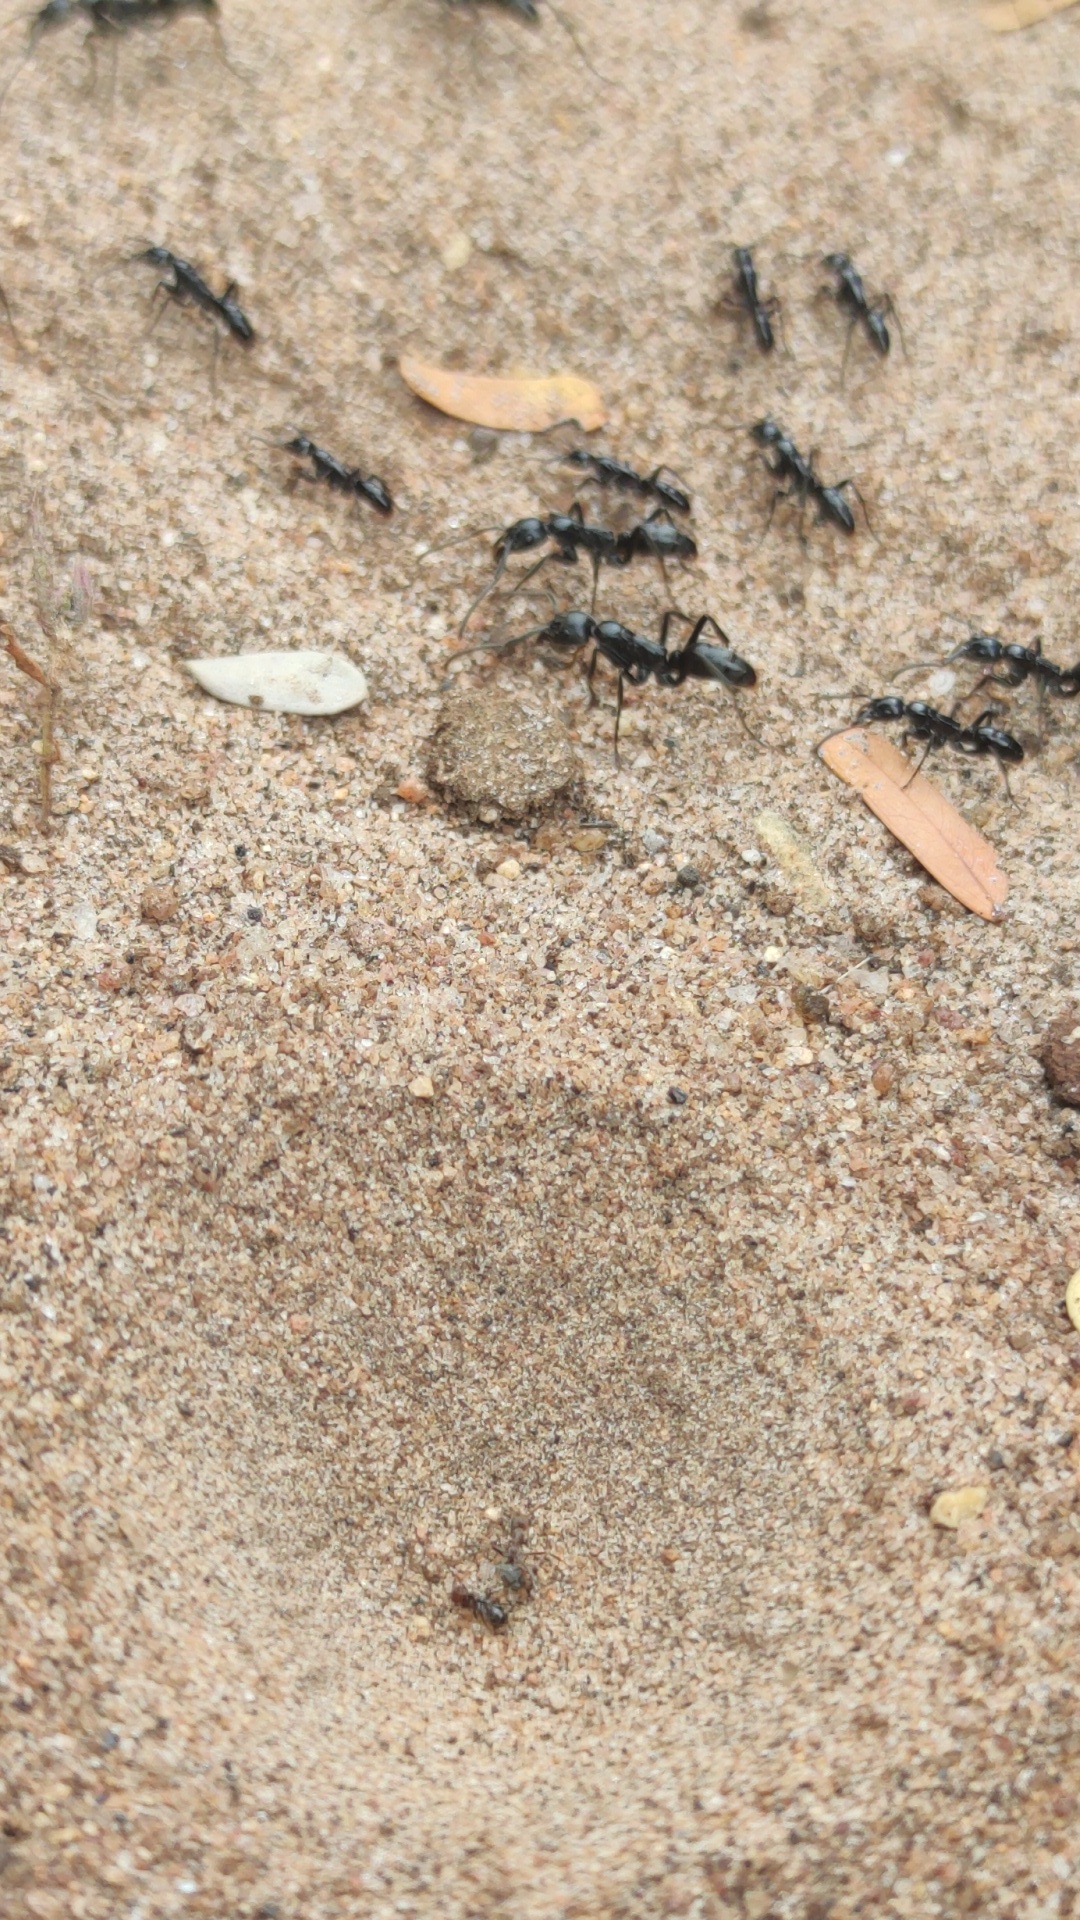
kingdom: Animalia
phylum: Arthropoda
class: Insecta
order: Hymenoptera
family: Formicidae
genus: Megaponera
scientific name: Megaponera analis
